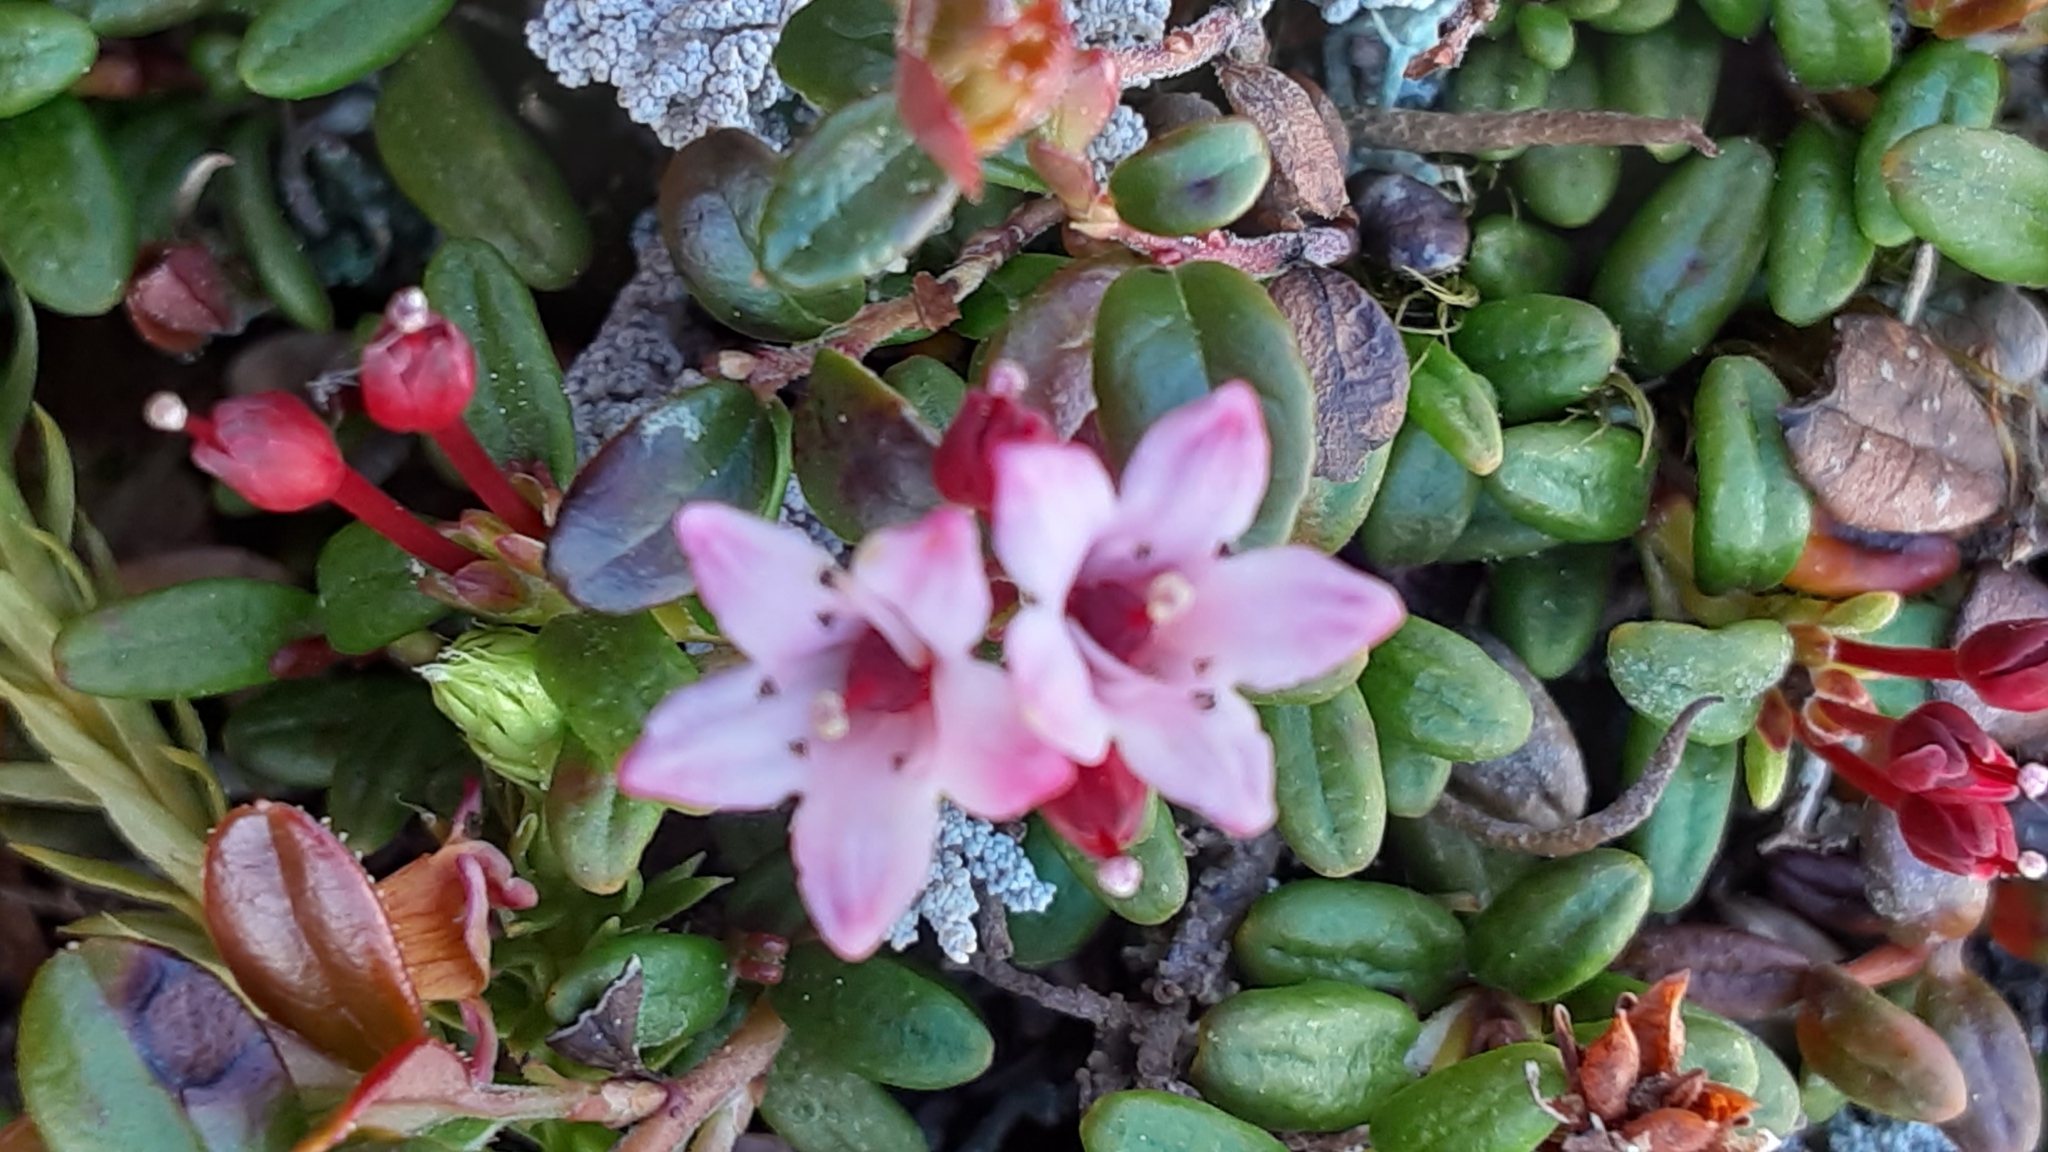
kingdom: Plantae
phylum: Tracheophyta
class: Magnoliopsida
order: Ericales
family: Ericaceae
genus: Kalmia
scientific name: Kalmia procumbens
